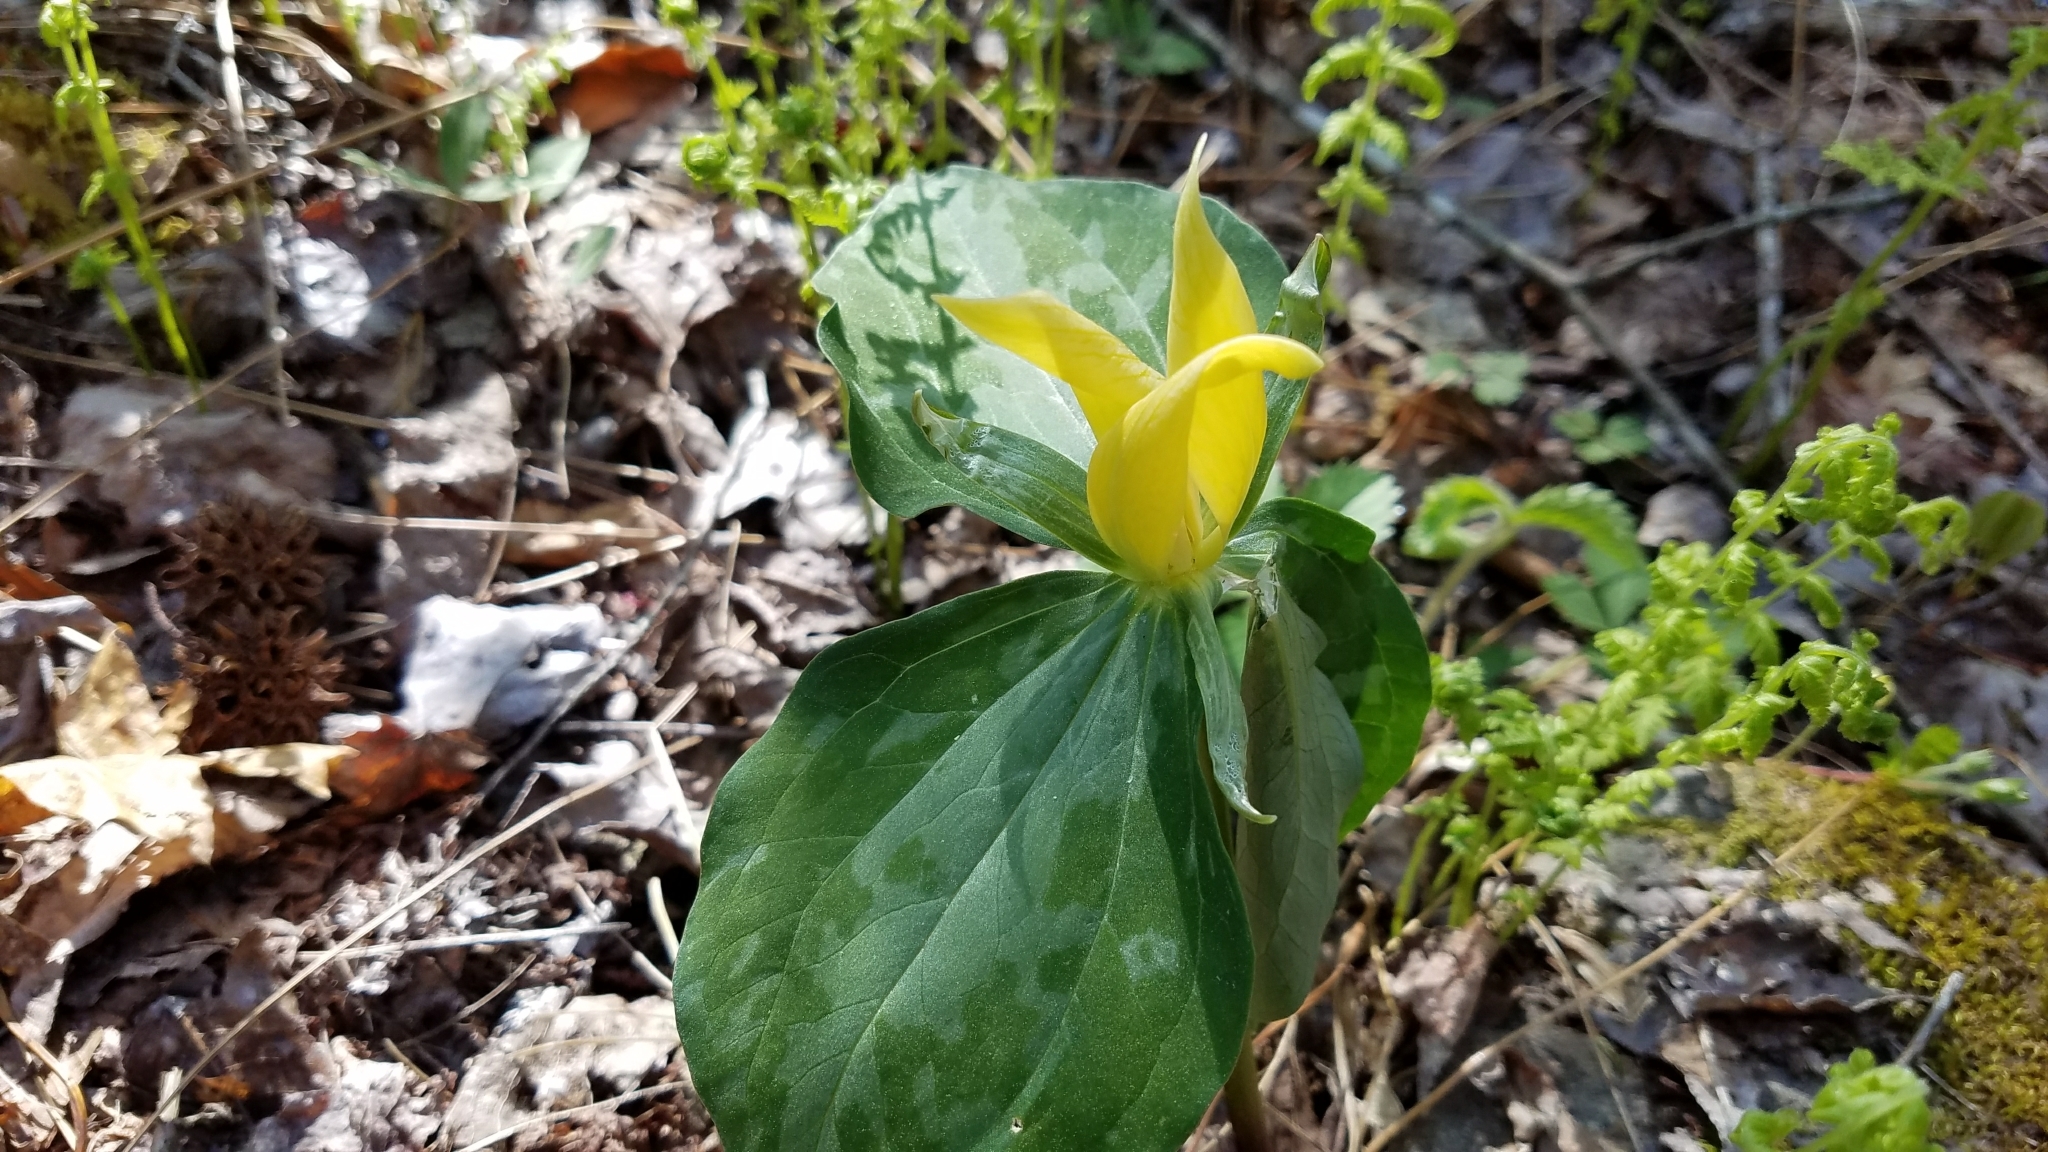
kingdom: Plantae
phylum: Tracheophyta
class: Liliopsida
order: Liliales
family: Melanthiaceae
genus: Trillium
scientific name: Trillium luteum
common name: Wax trillium
